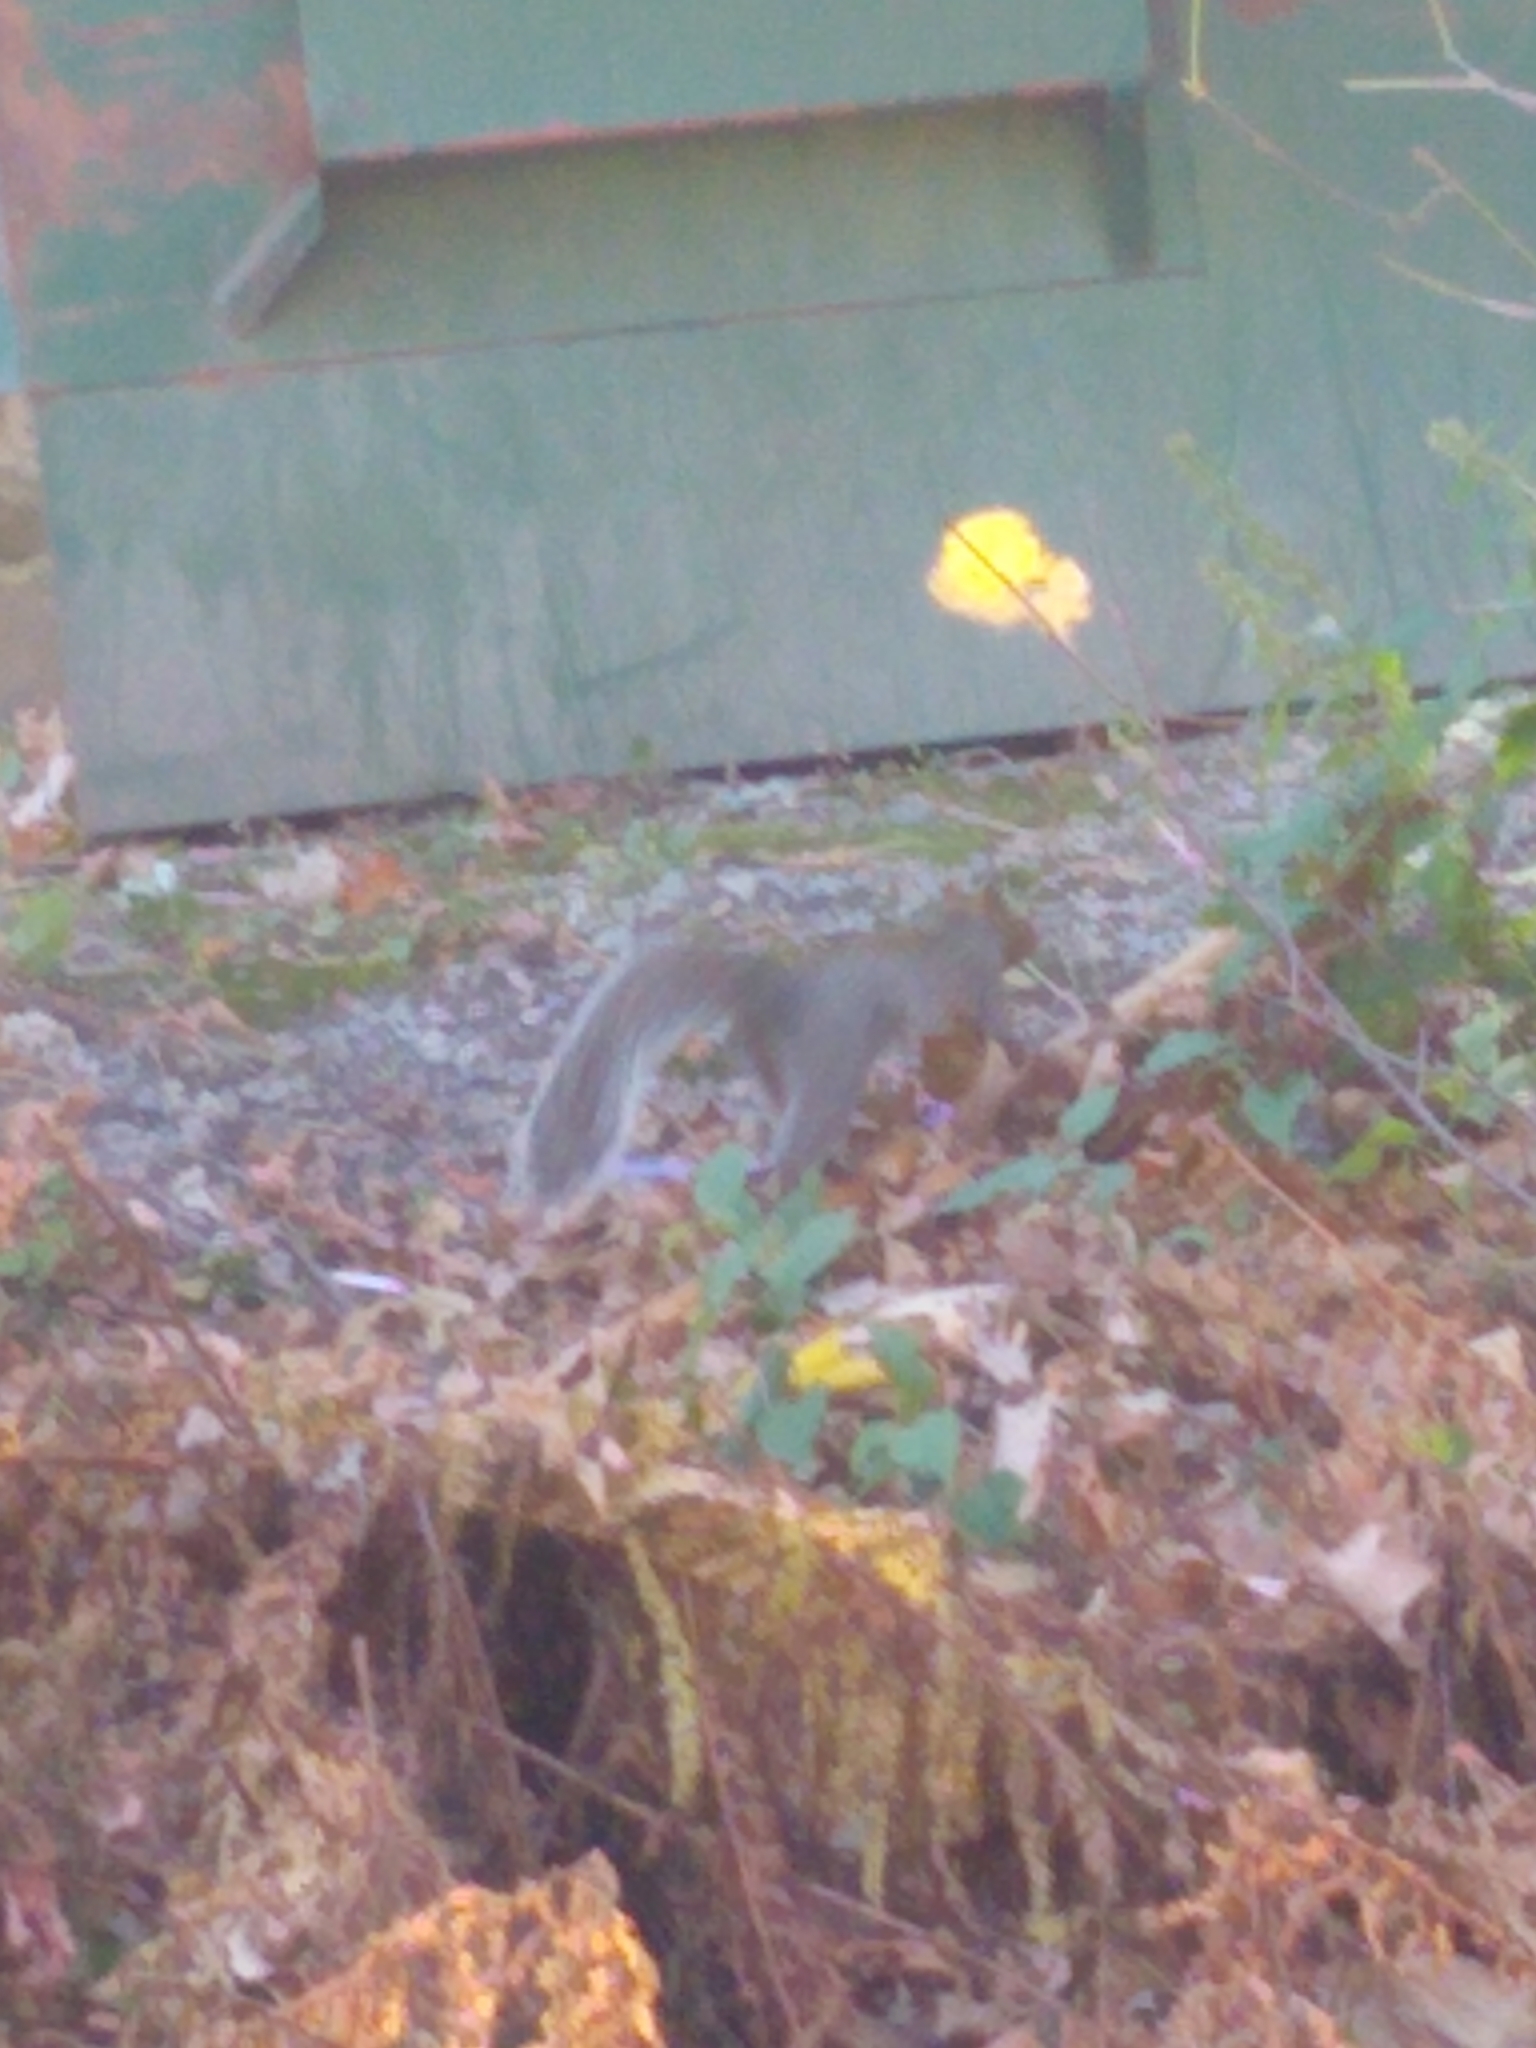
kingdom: Animalia
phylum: Chordata
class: Mammalia
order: Rodentia
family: Sciuridae
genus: Sciurus
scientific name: Sciurus carolinensis
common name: Eastern gray squirrel
